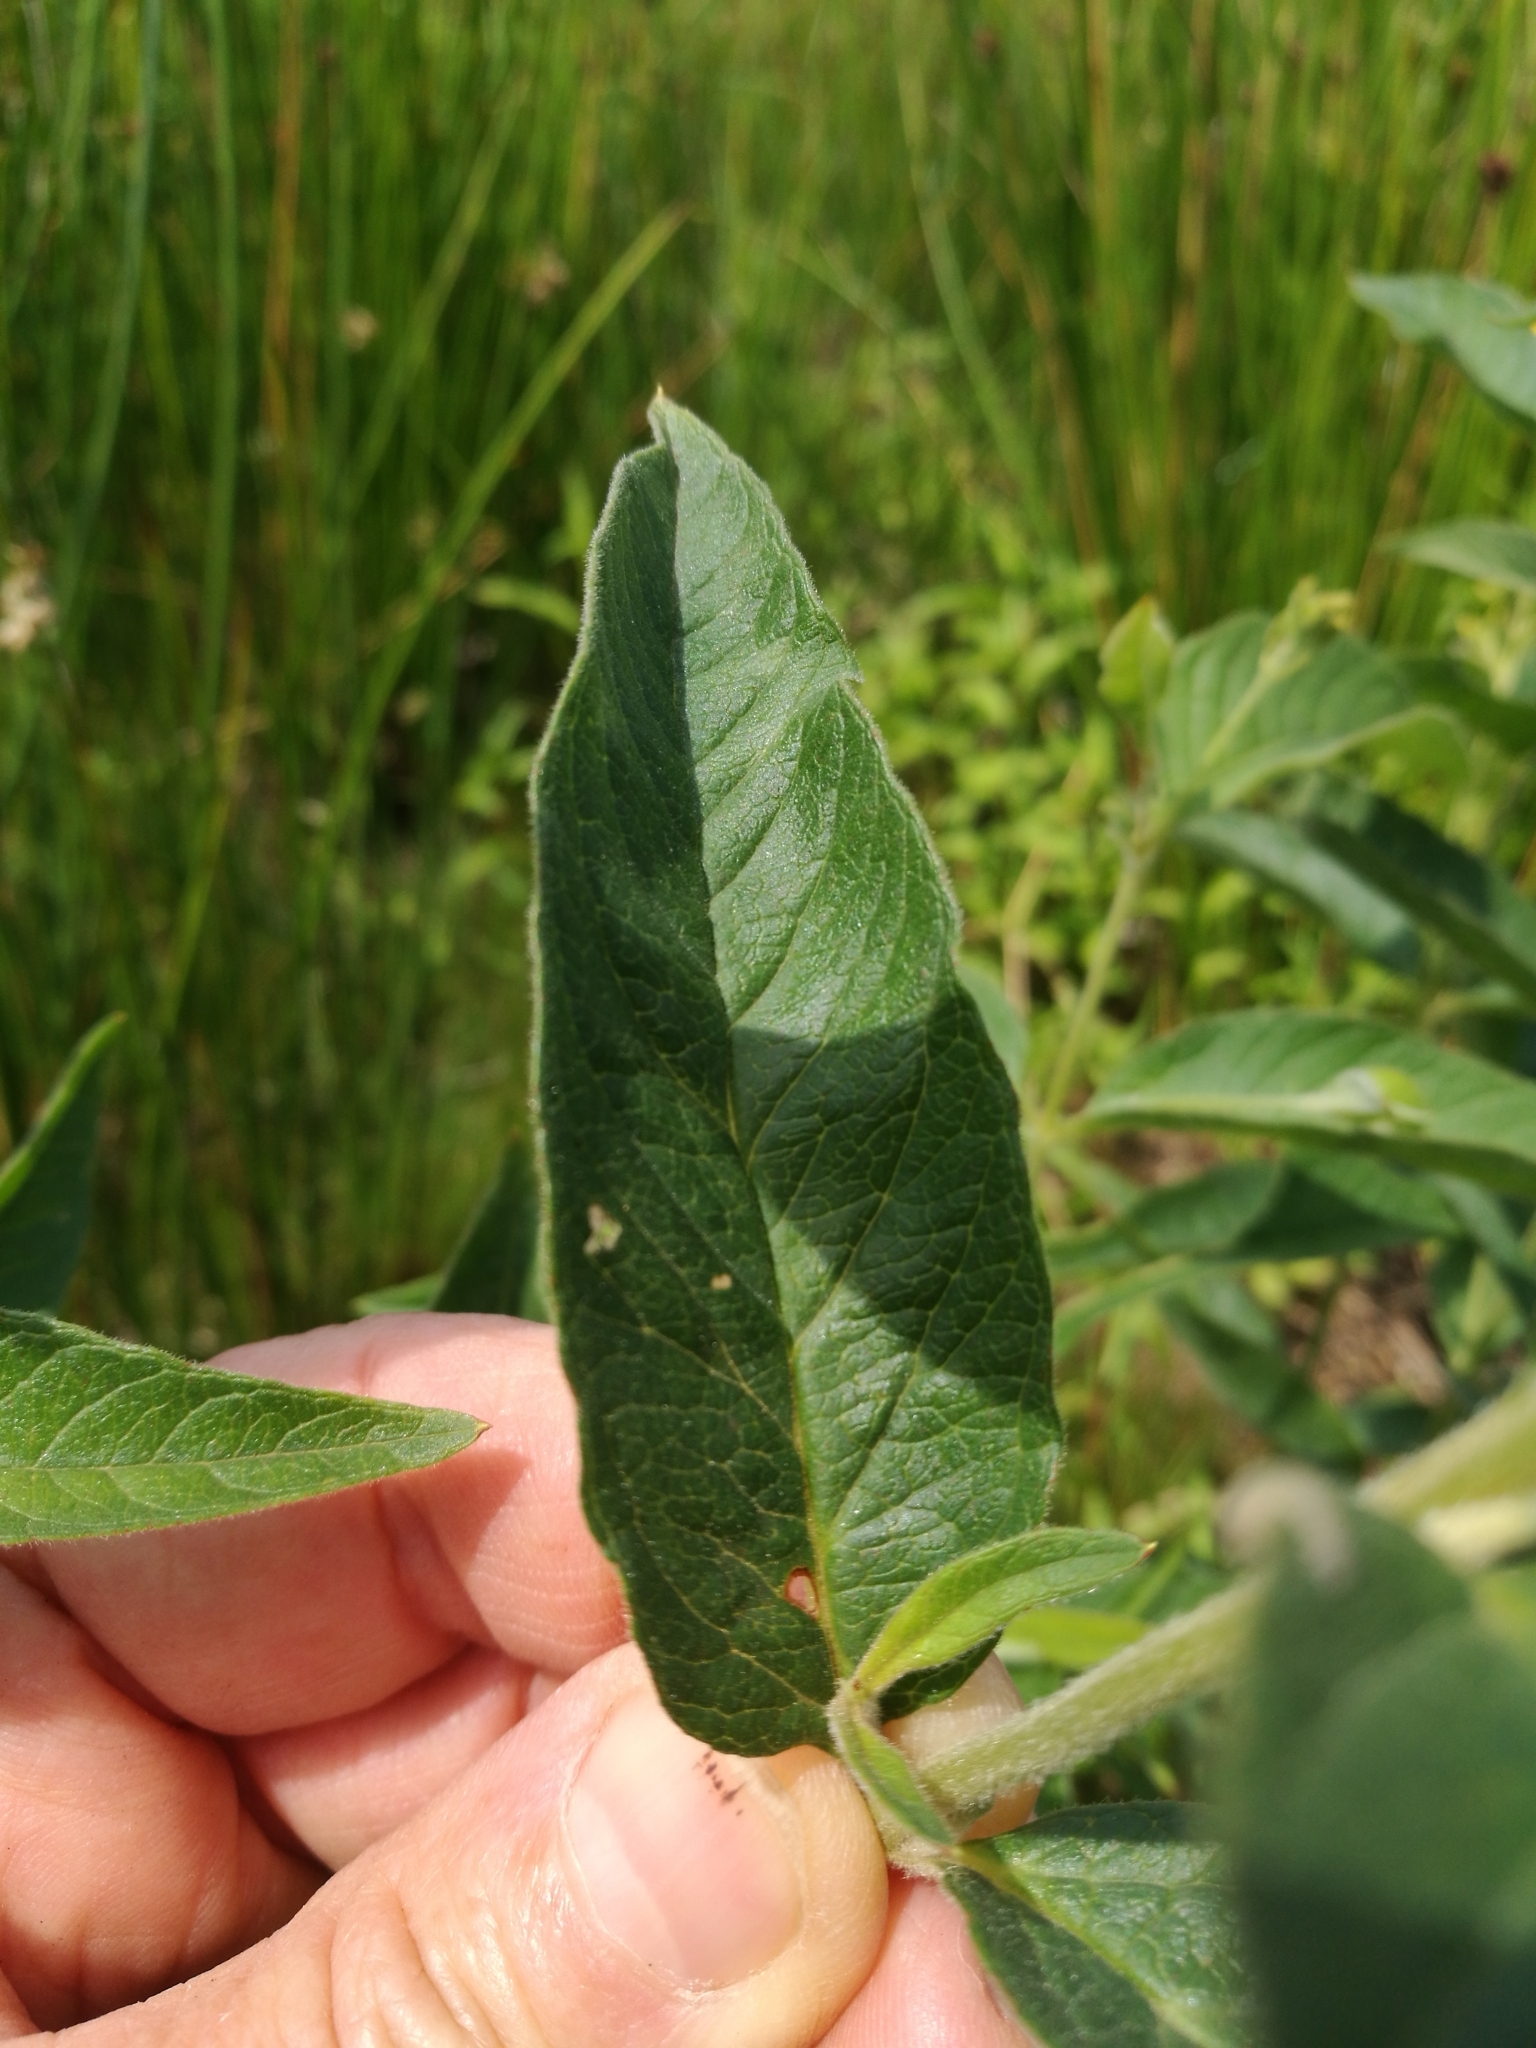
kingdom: Plantae
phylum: Tracheophyta
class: Magnoliopsida
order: Ericales
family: Primulaceae
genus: Lysimachia
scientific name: Lysimachia vulgaris
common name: Yellow loosestrife
